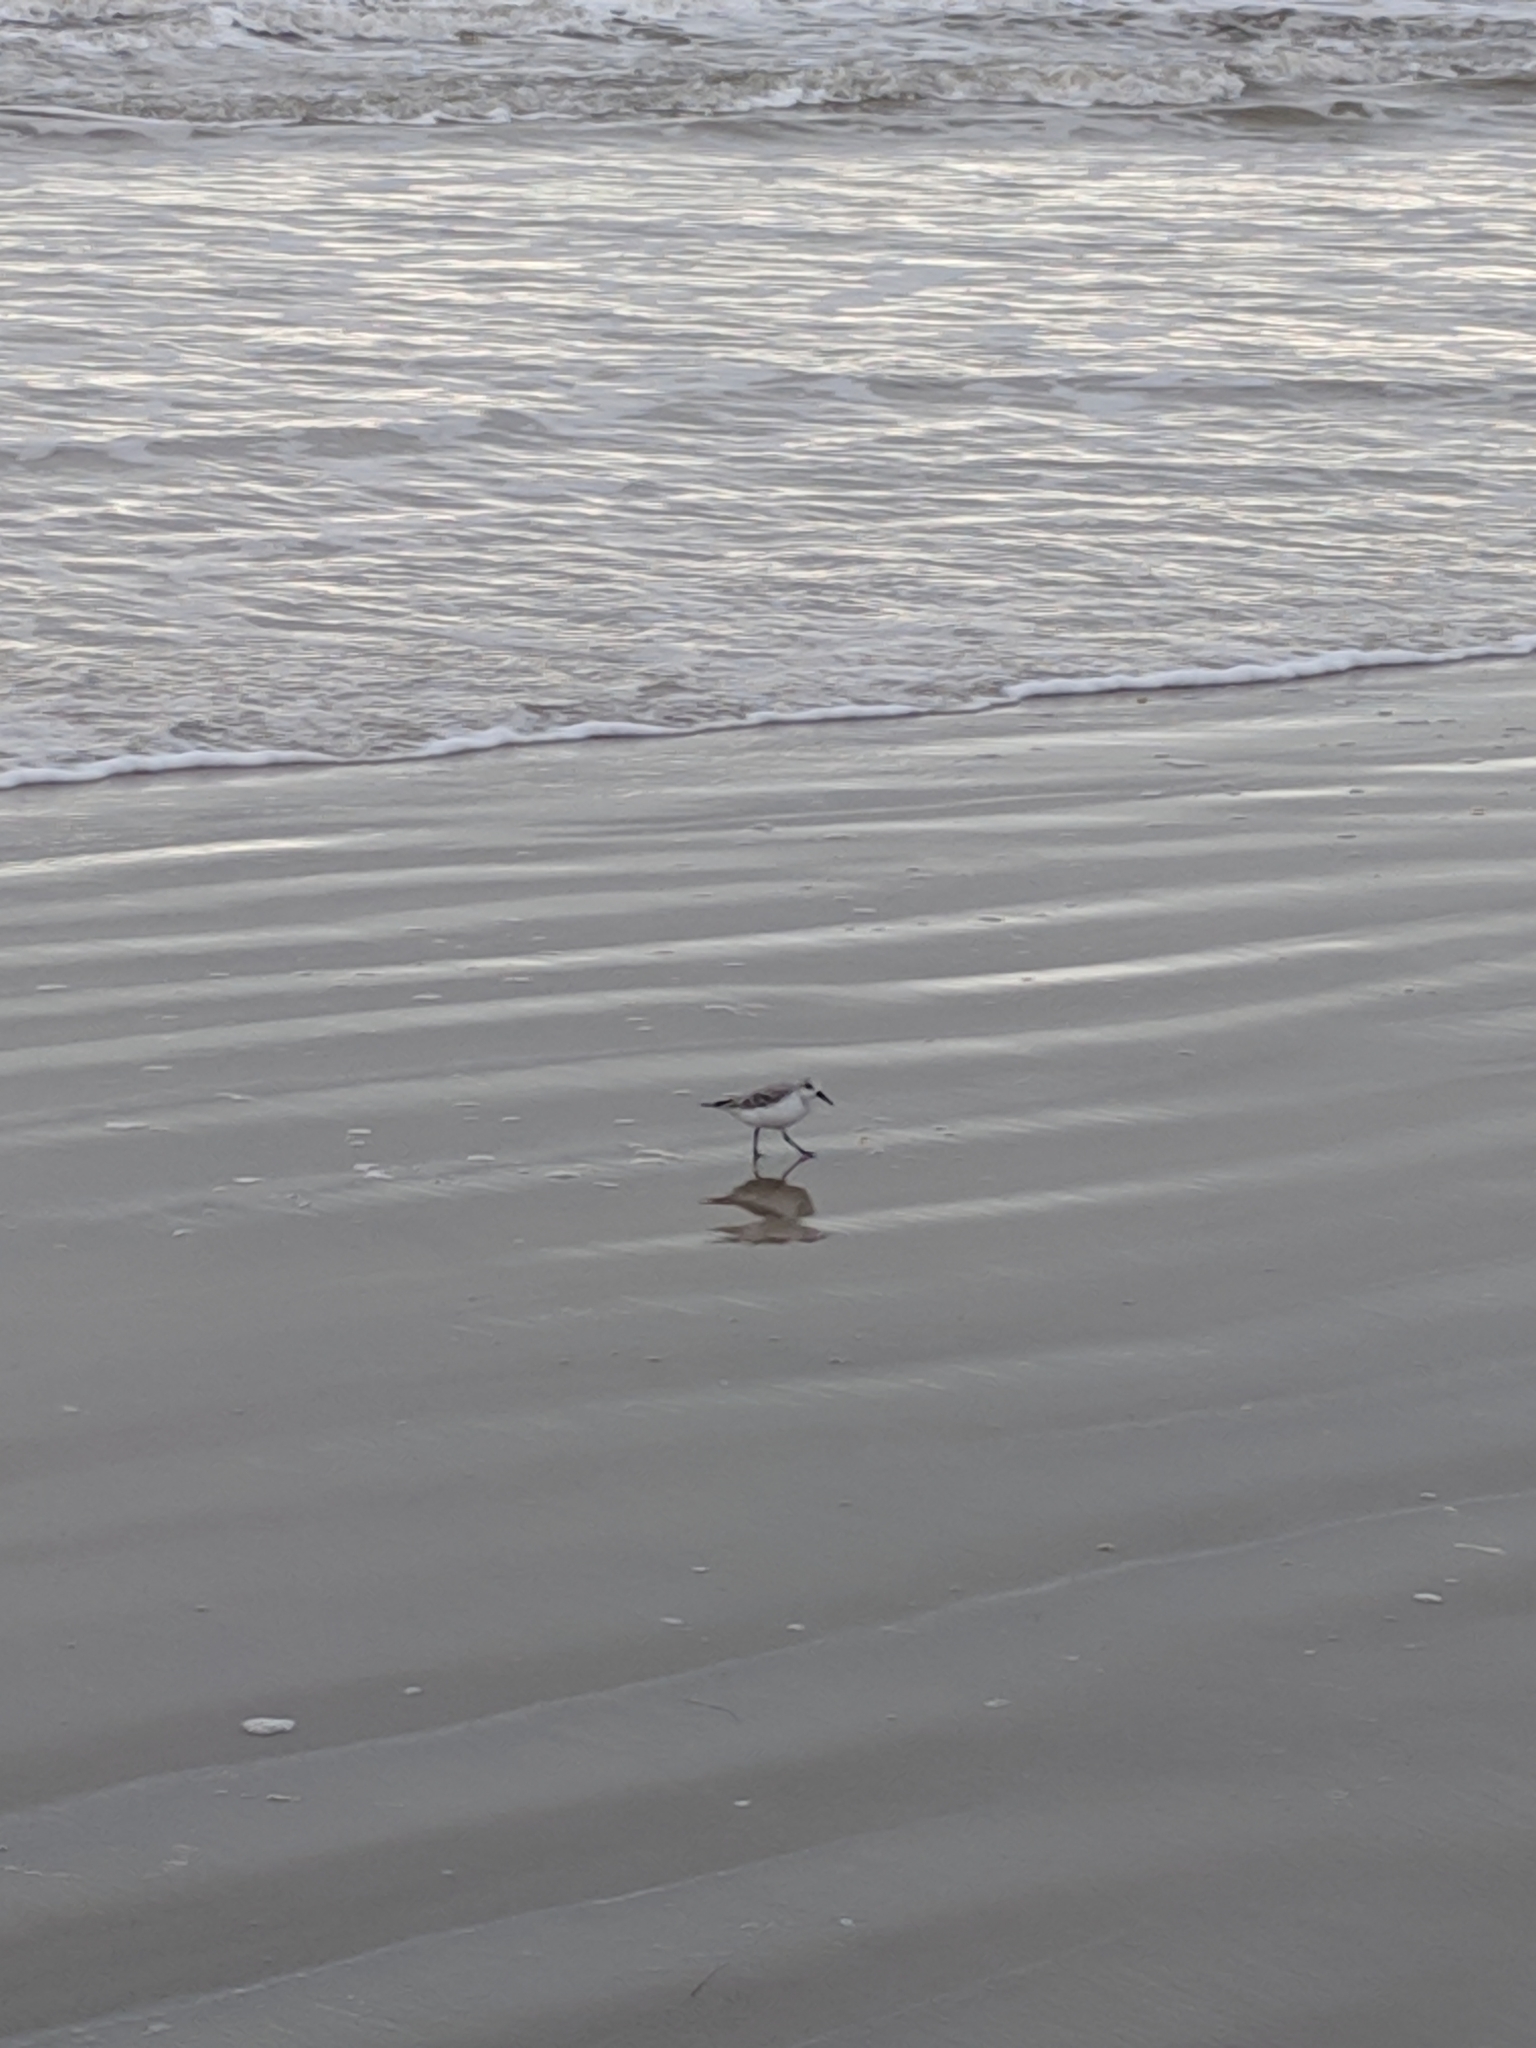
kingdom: Animalia
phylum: Chordata
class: Aves
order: Charadriiformes
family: Scolopacidae
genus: Calidris
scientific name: Calidris alba
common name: Sanderling
